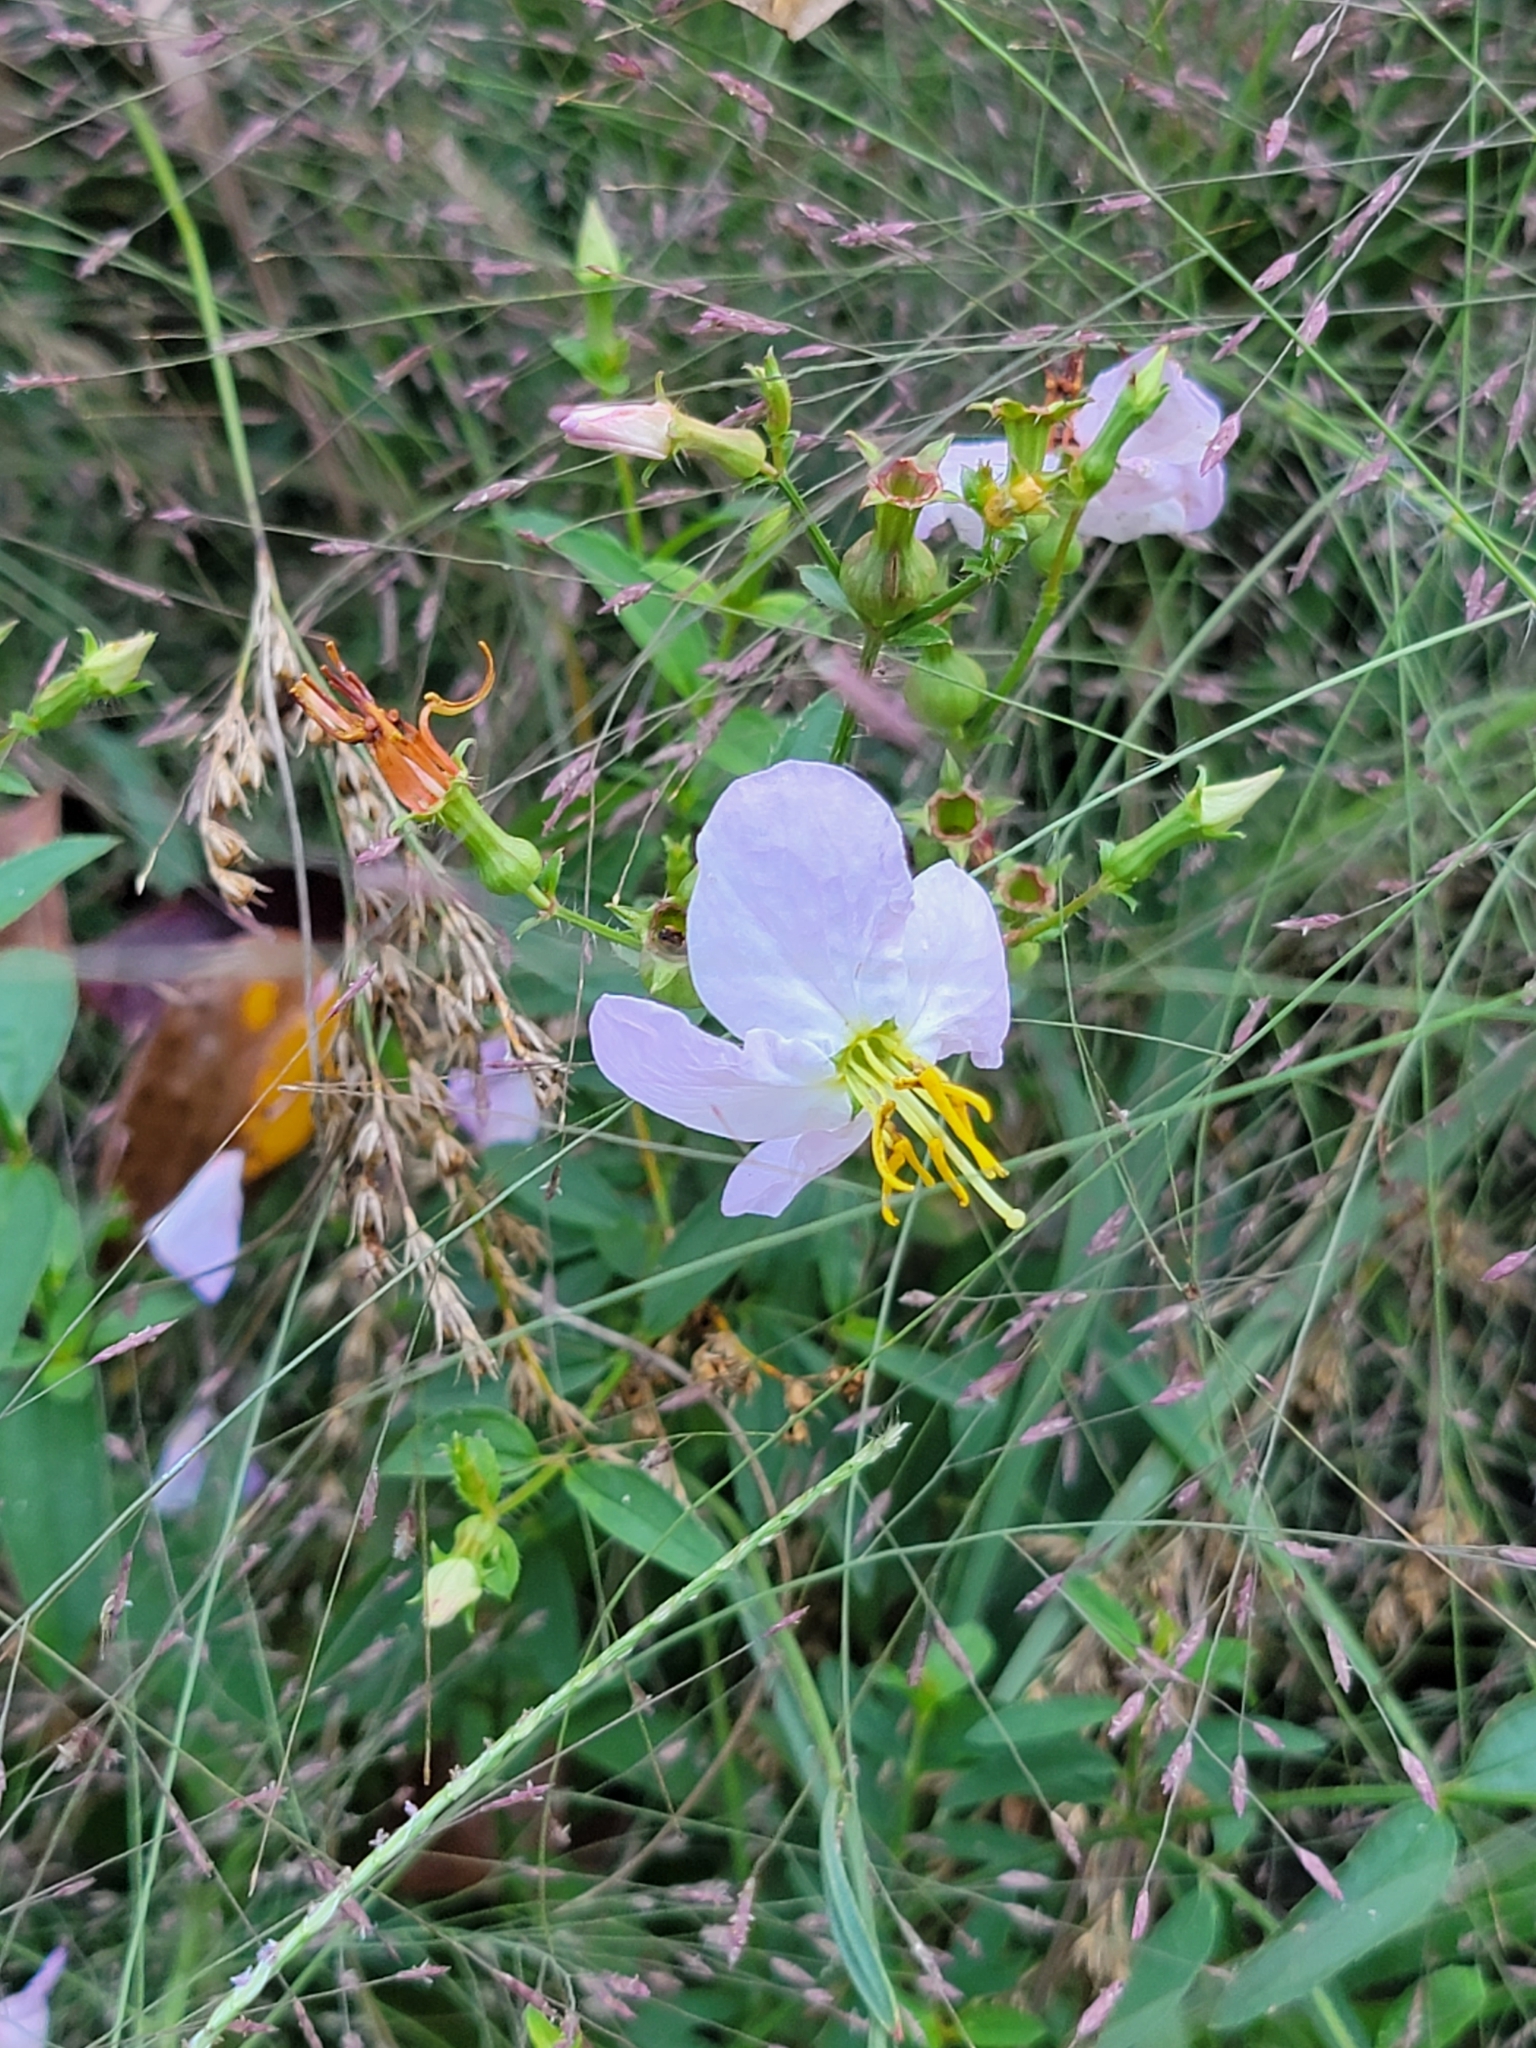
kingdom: Plantae
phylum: Tracheophyta
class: Magnoliopsida
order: Myrtales
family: Melastomataceae
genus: Rhexia
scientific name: Rhexia mariana
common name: Dull meadow-pitcher
